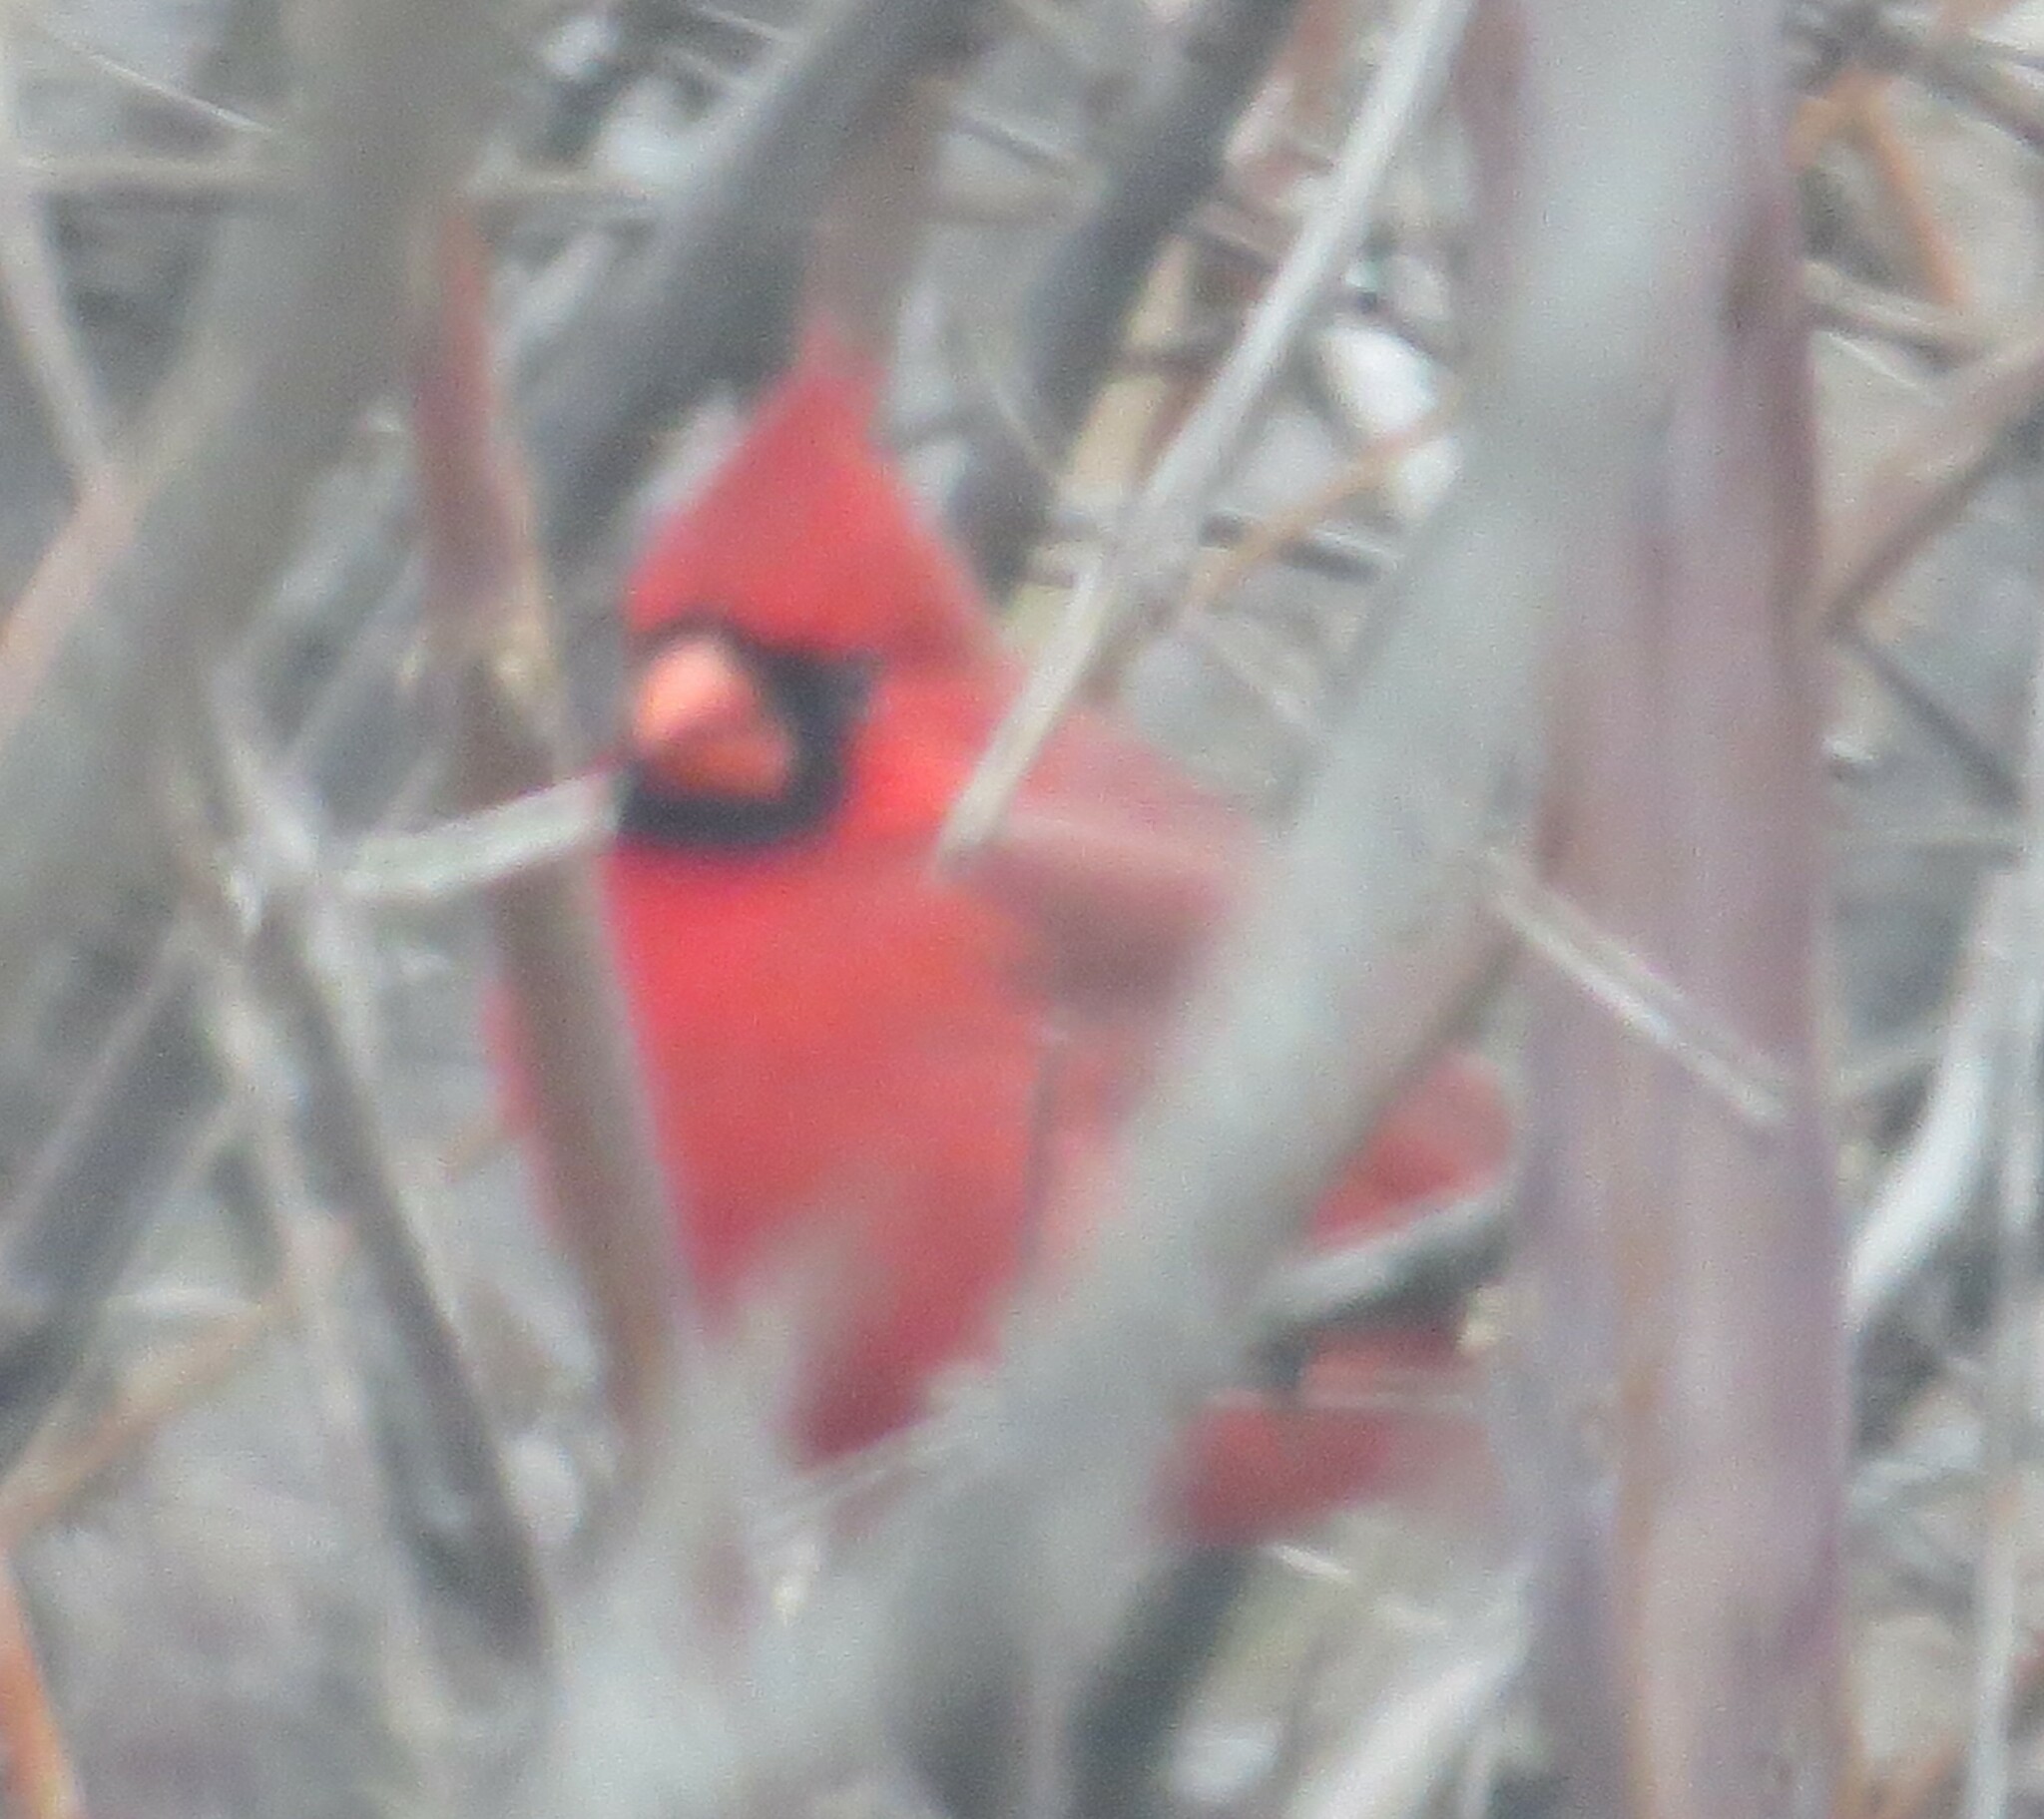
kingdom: Animalia
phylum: Chordata
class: Aves
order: Passeriformes
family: Cardinalidae
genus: Cardinalis
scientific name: Cardinalis cardinalis
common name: Northern cardinal
